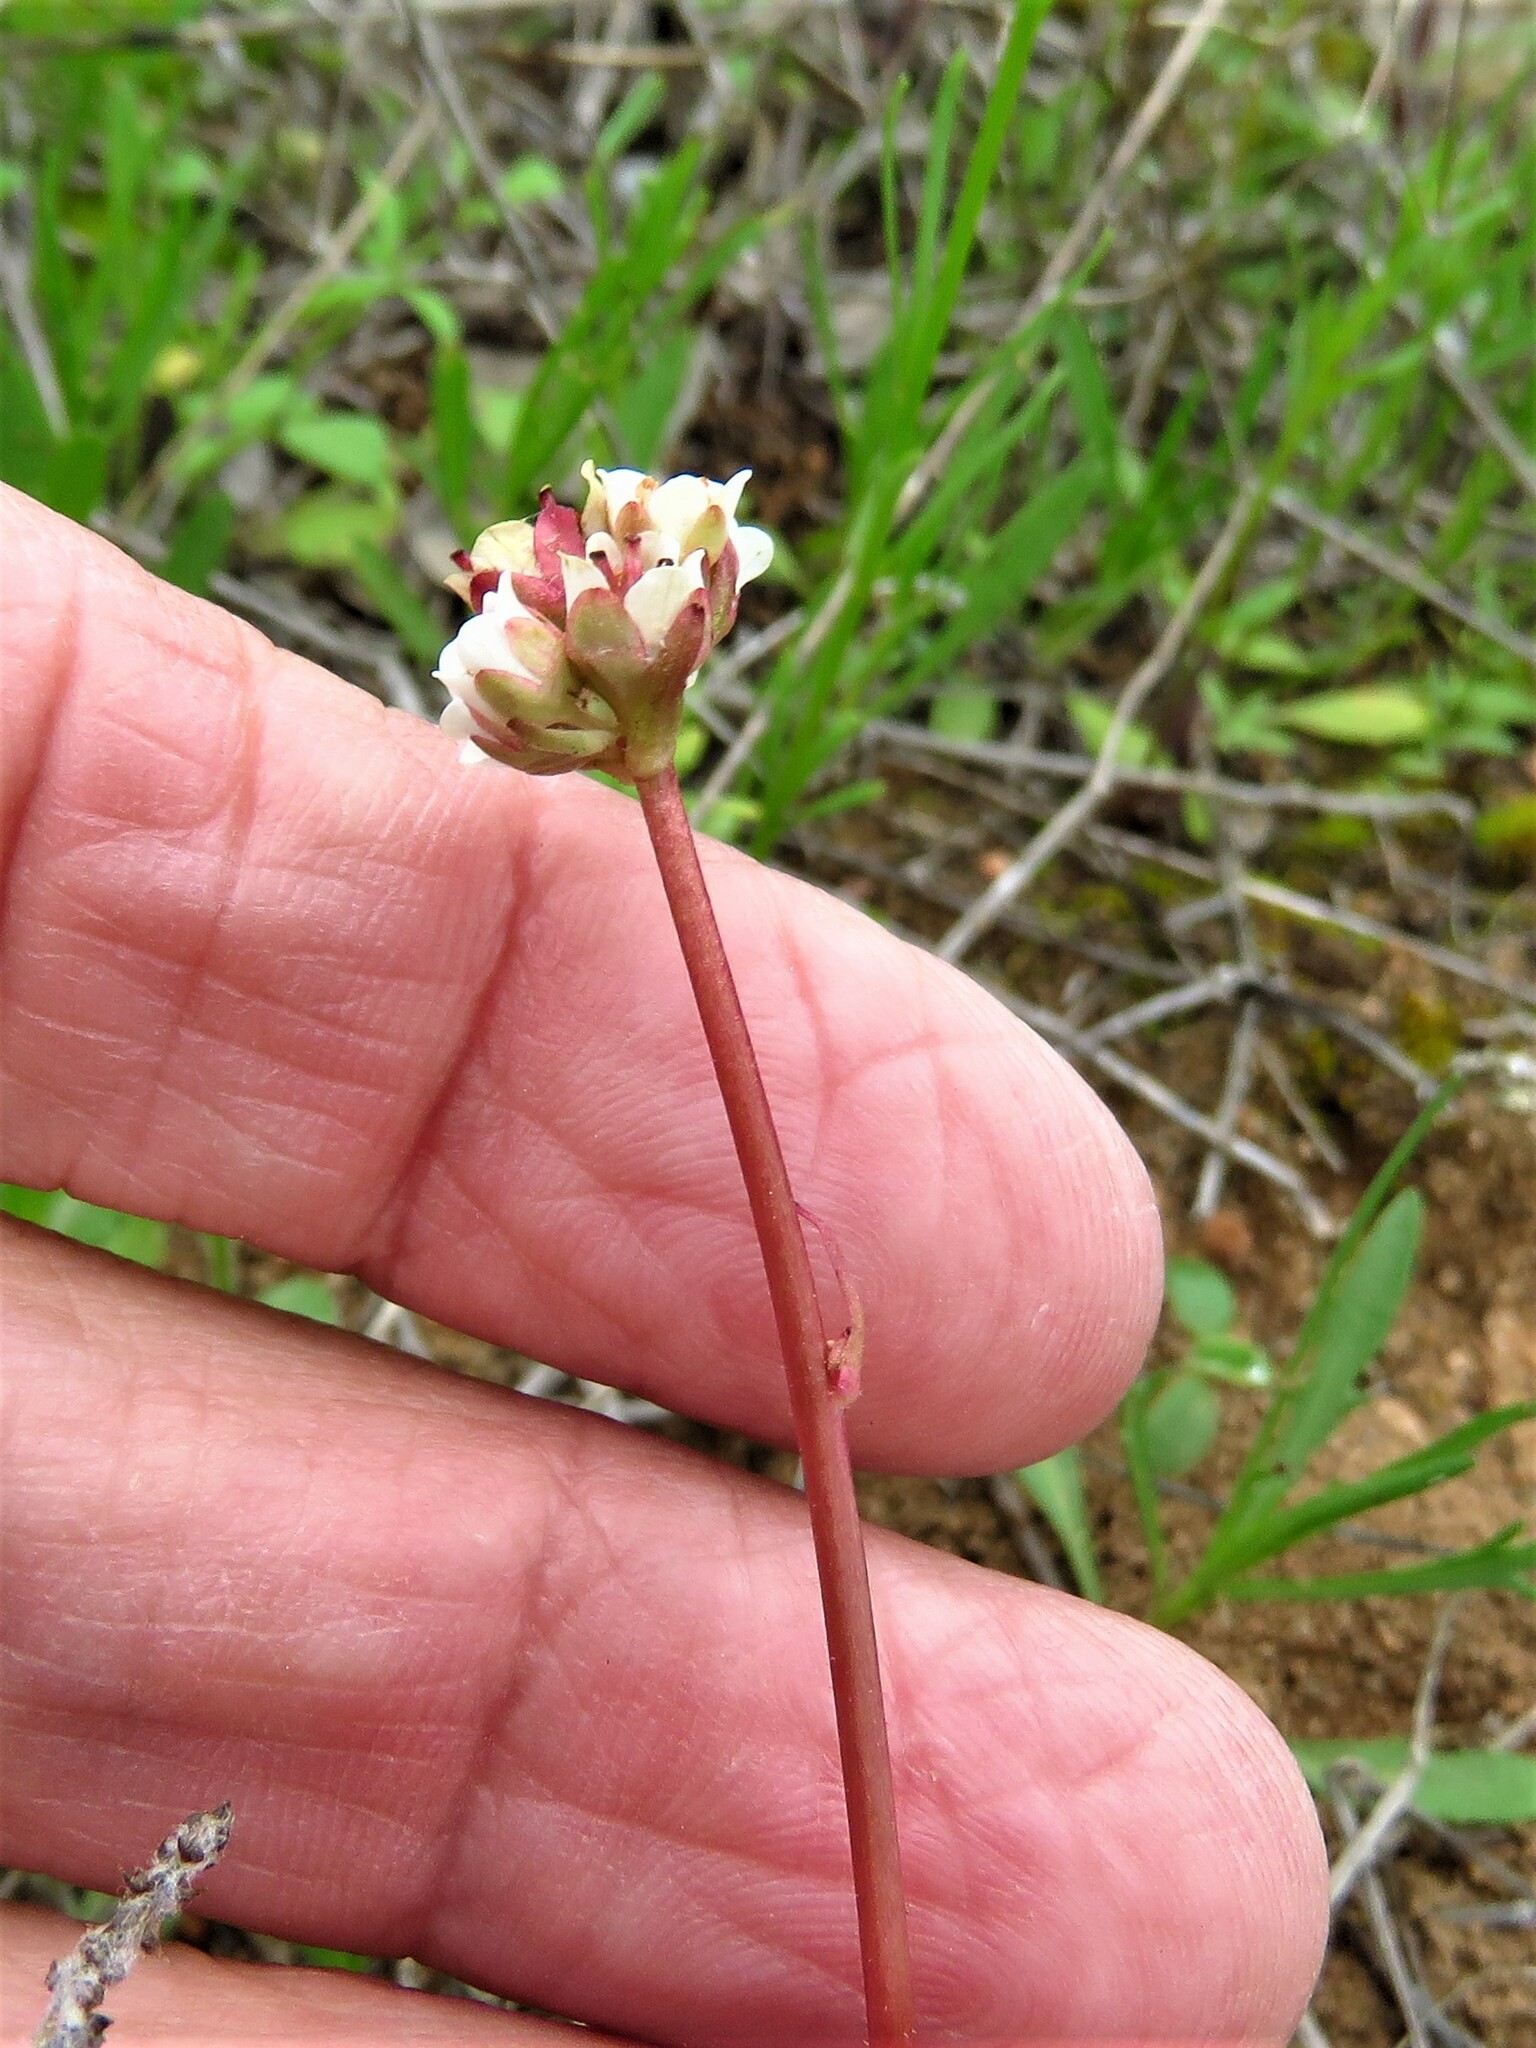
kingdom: Plantae
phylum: Tracheophyta
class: Magnoliopsida
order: Saxifragales
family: Saxifragaceae
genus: Micranthes
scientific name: Micranthes texana
